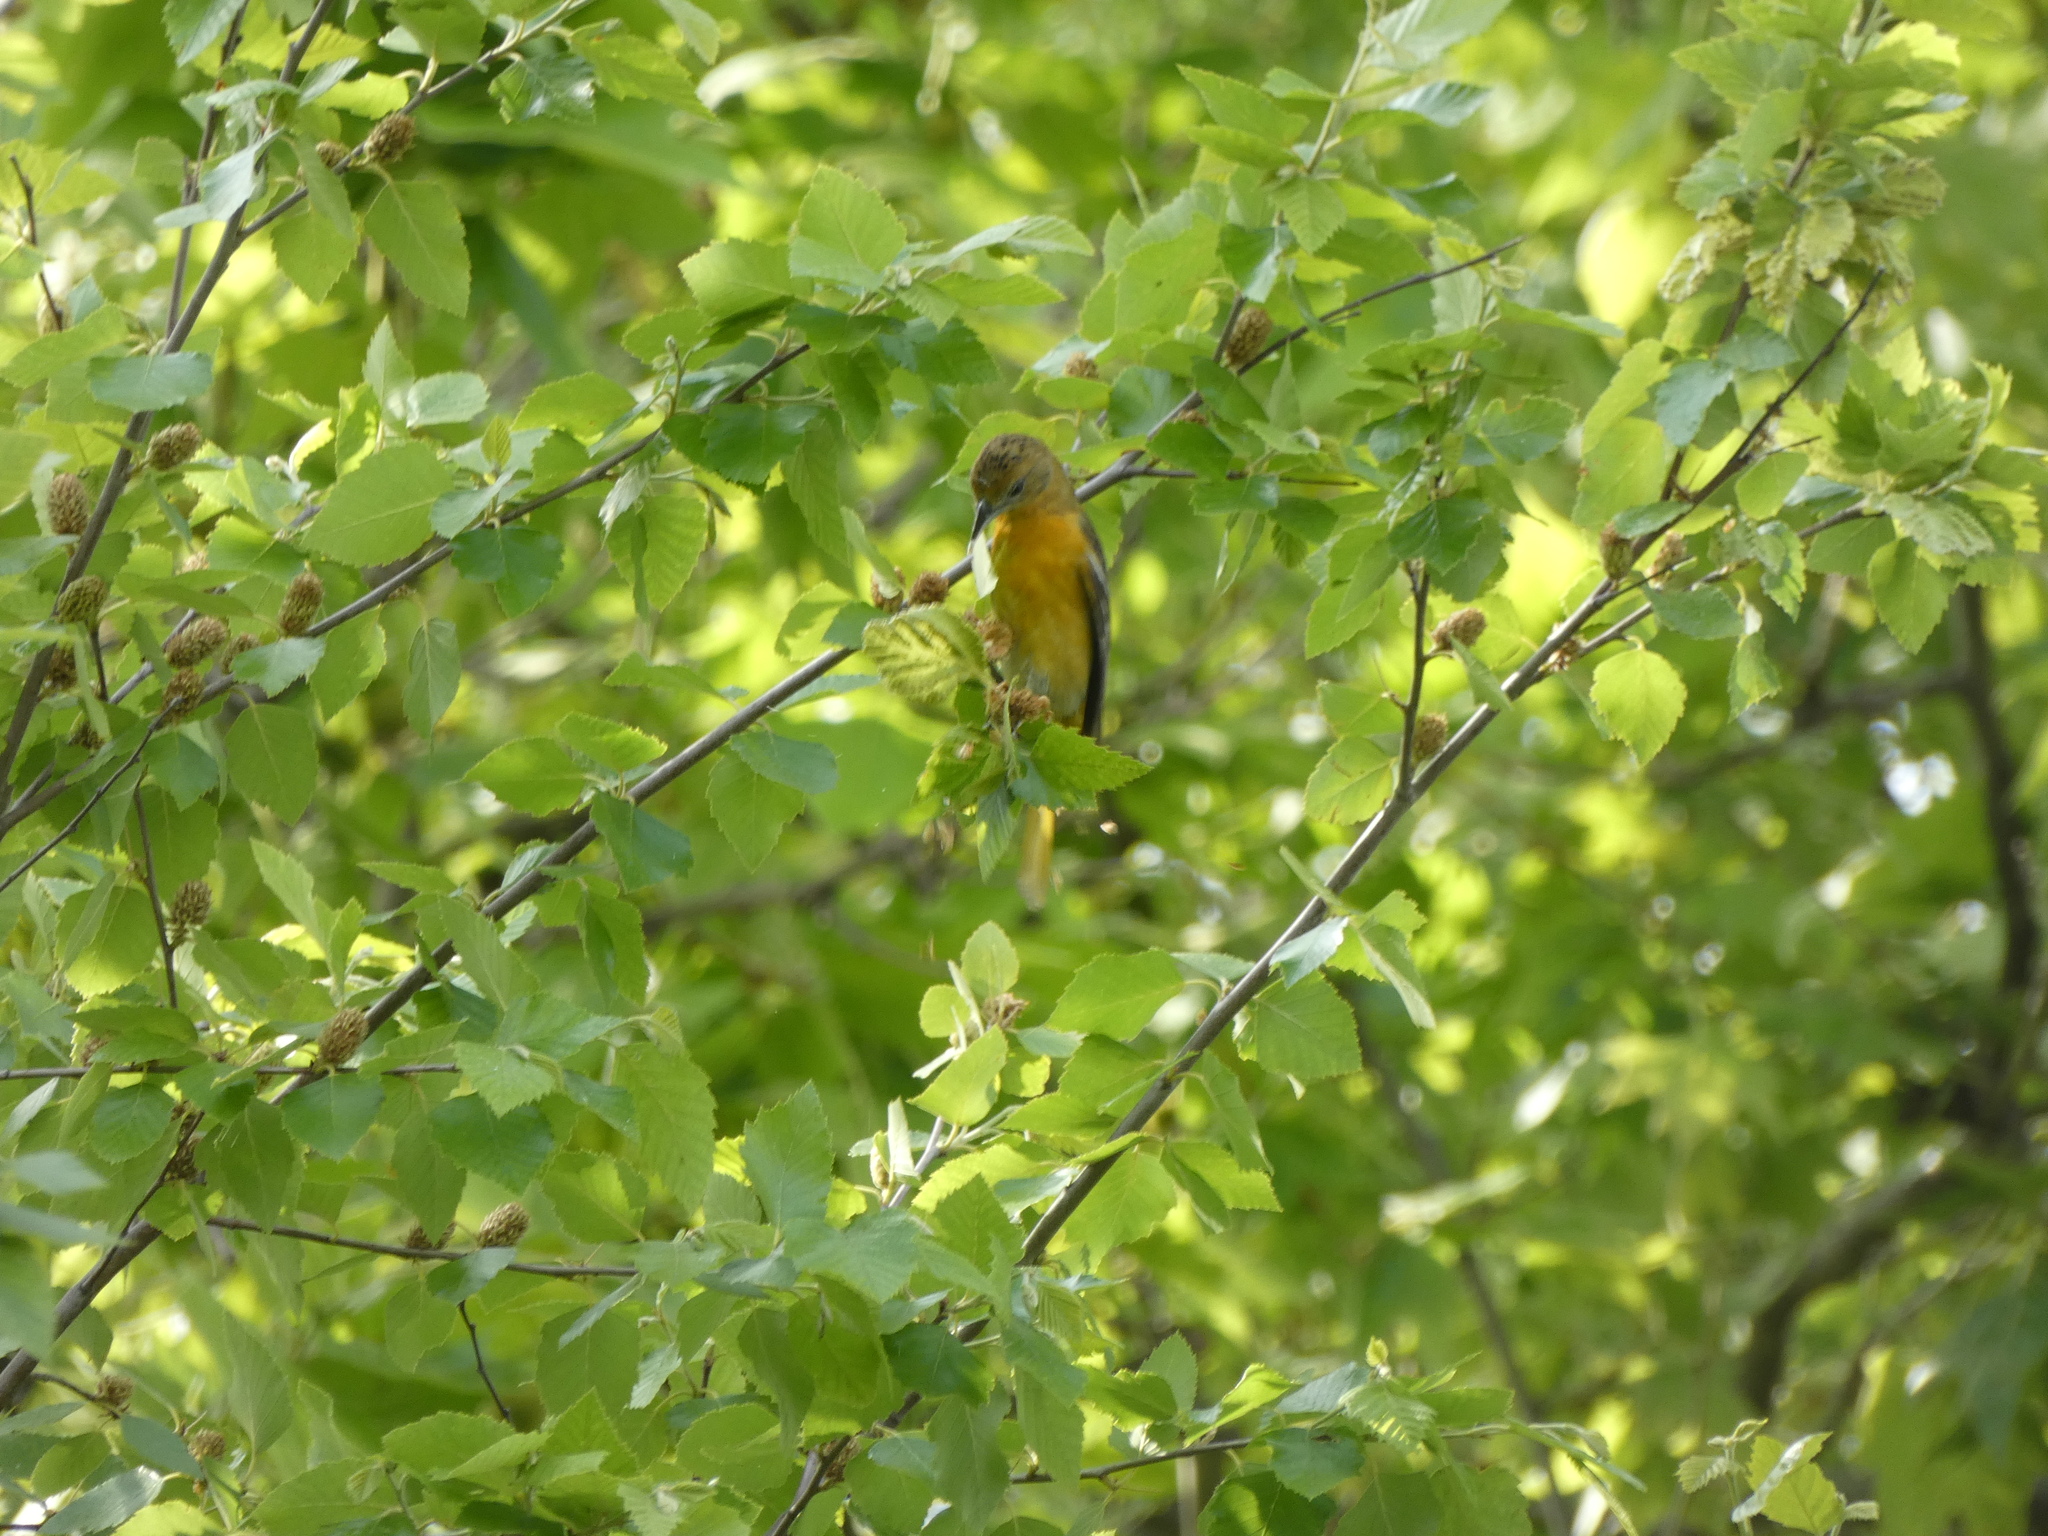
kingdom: Animalia
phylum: Chordata
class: Aves
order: Passeriformes
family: Icteridae
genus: Icterus
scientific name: Icterus galbula
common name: Baltimore oriole
